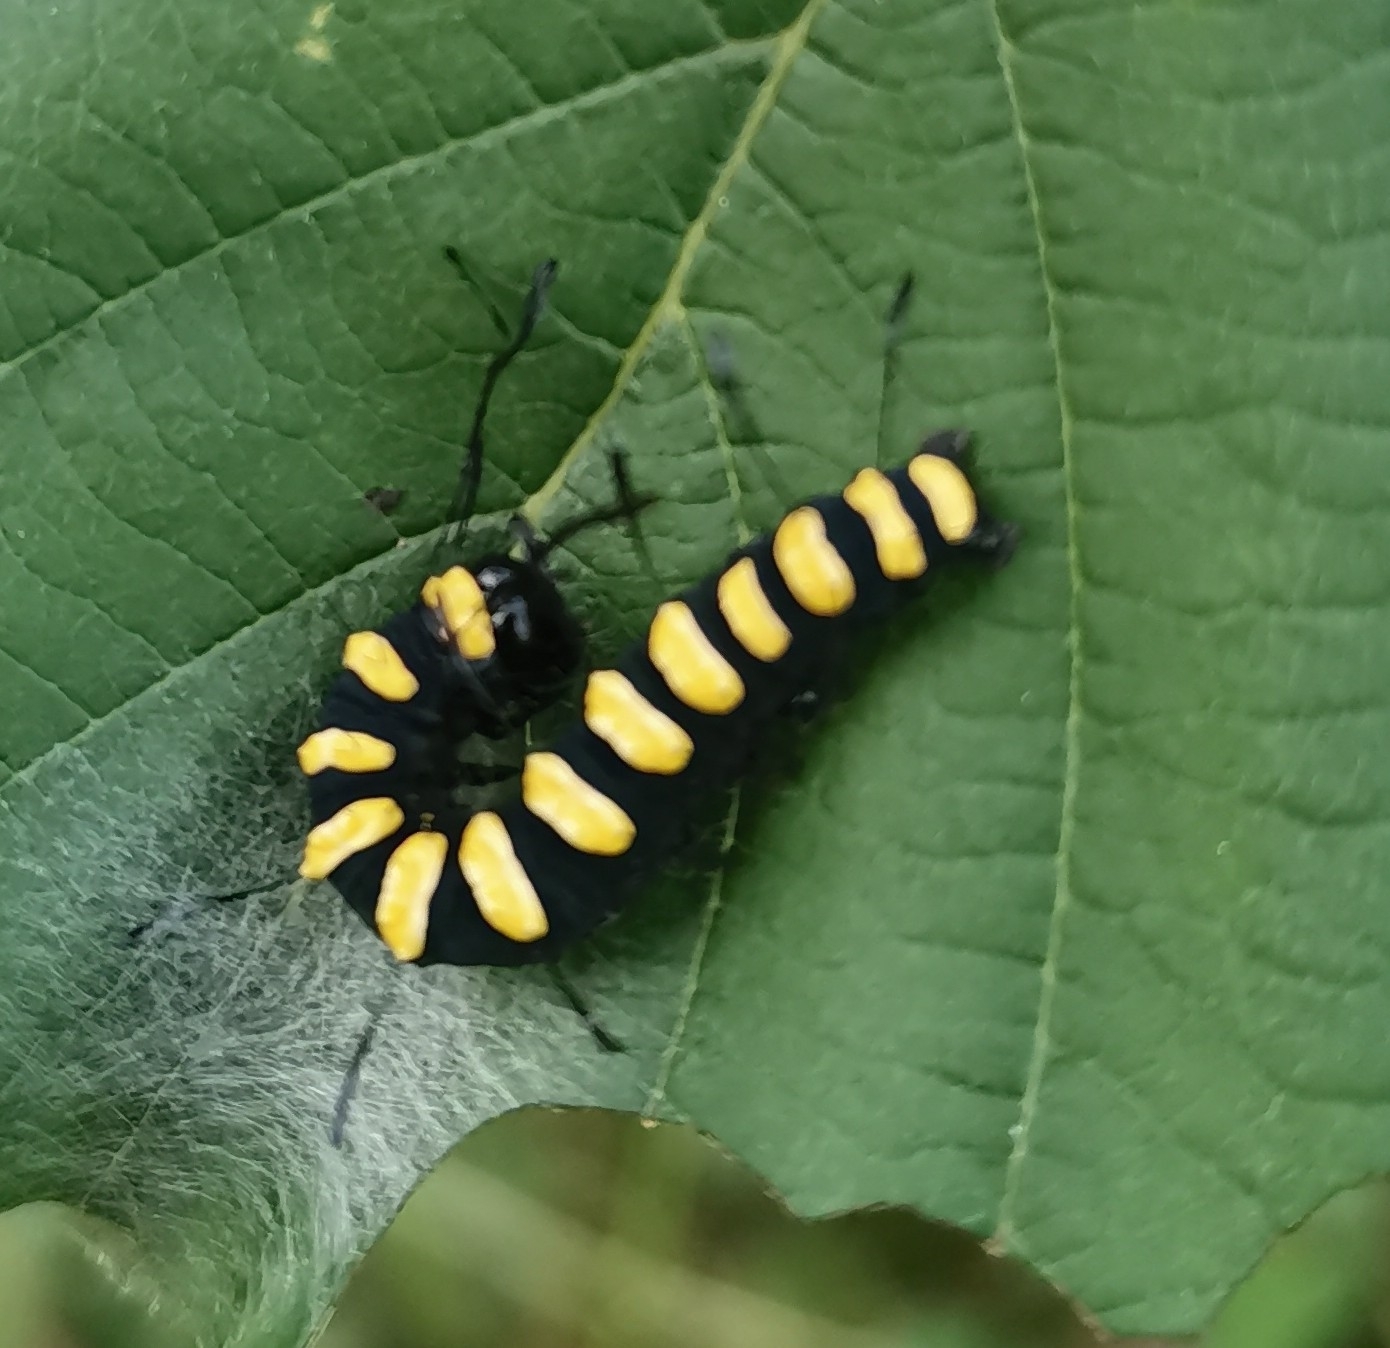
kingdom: Animalia
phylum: Arthropoda
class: Insecta
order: Lepidoptera
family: Noctuidae
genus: Acronicta
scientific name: Acronicta alni
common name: Alder moth
